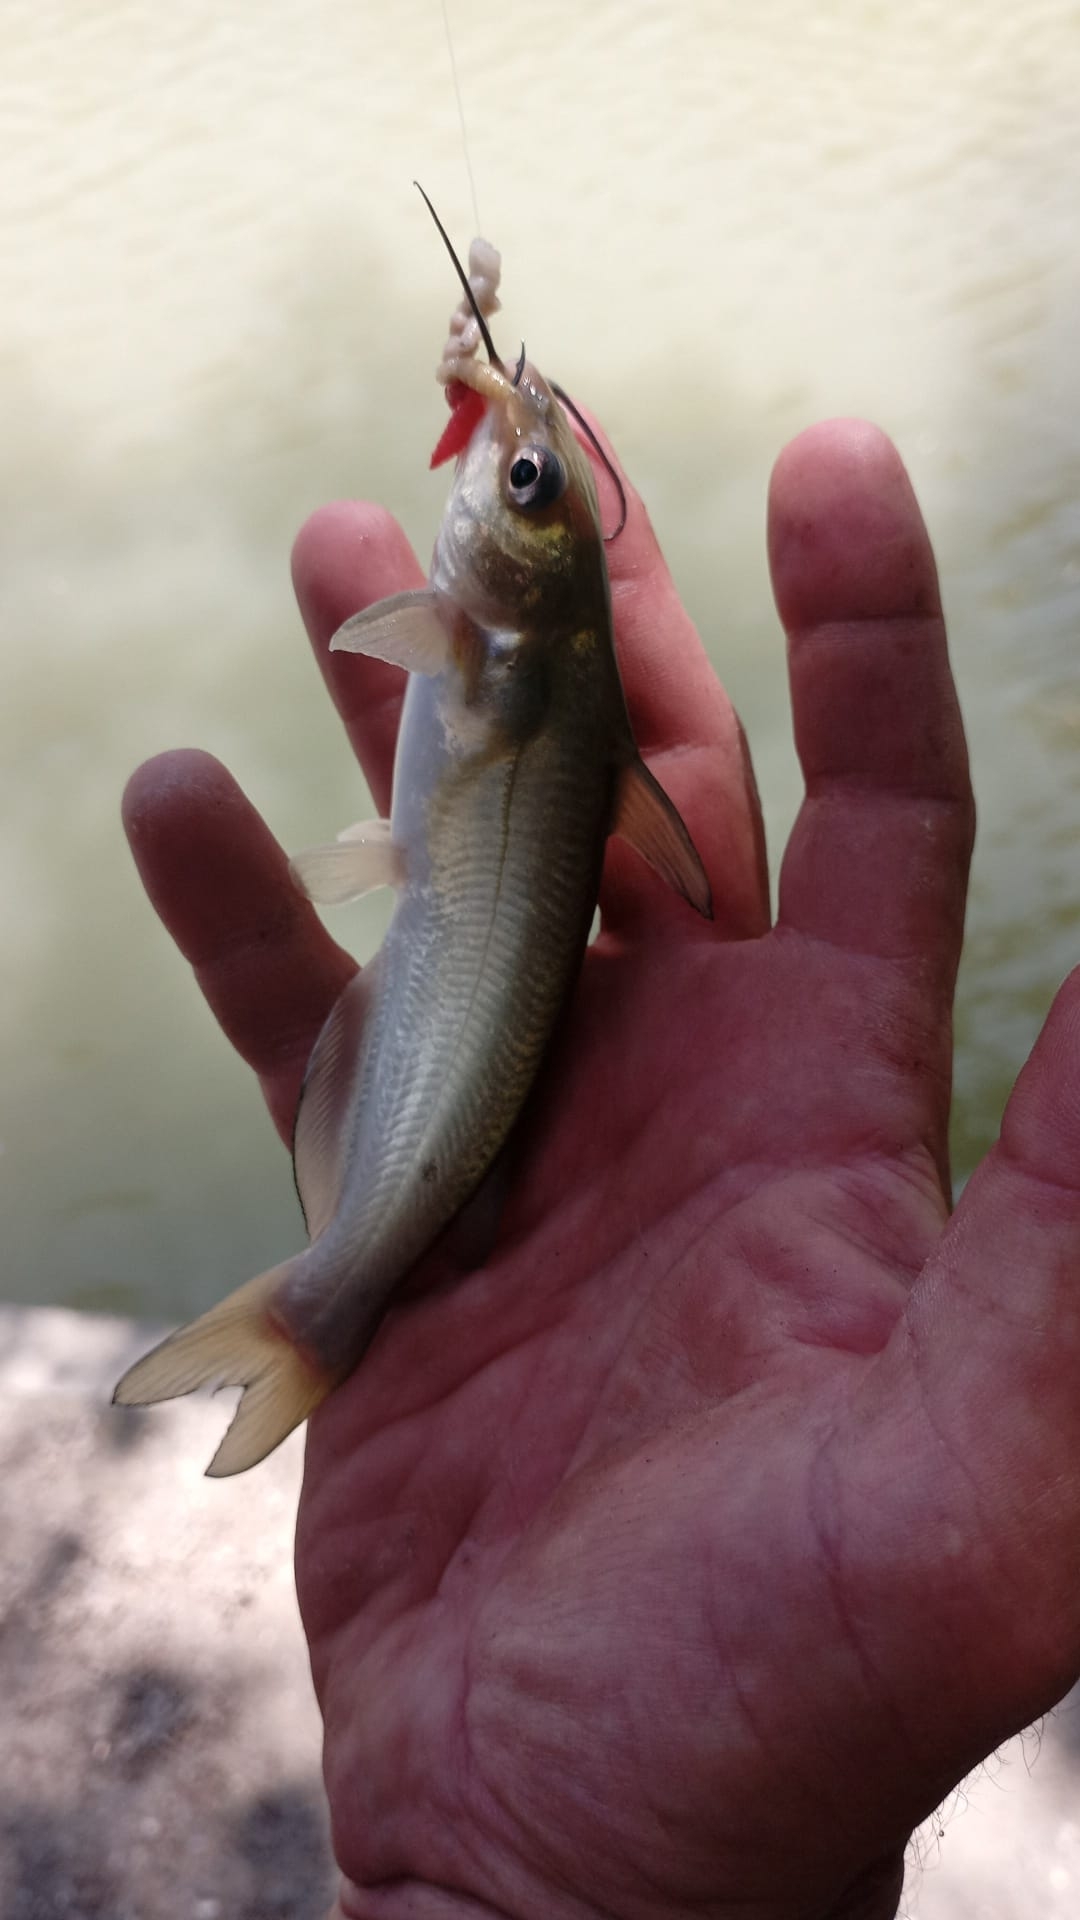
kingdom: Animalia
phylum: Chordata
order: Siluriformes
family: Ictaluridae
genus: Ictalurus
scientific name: Ictalurus punctatus
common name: Channel catfish
